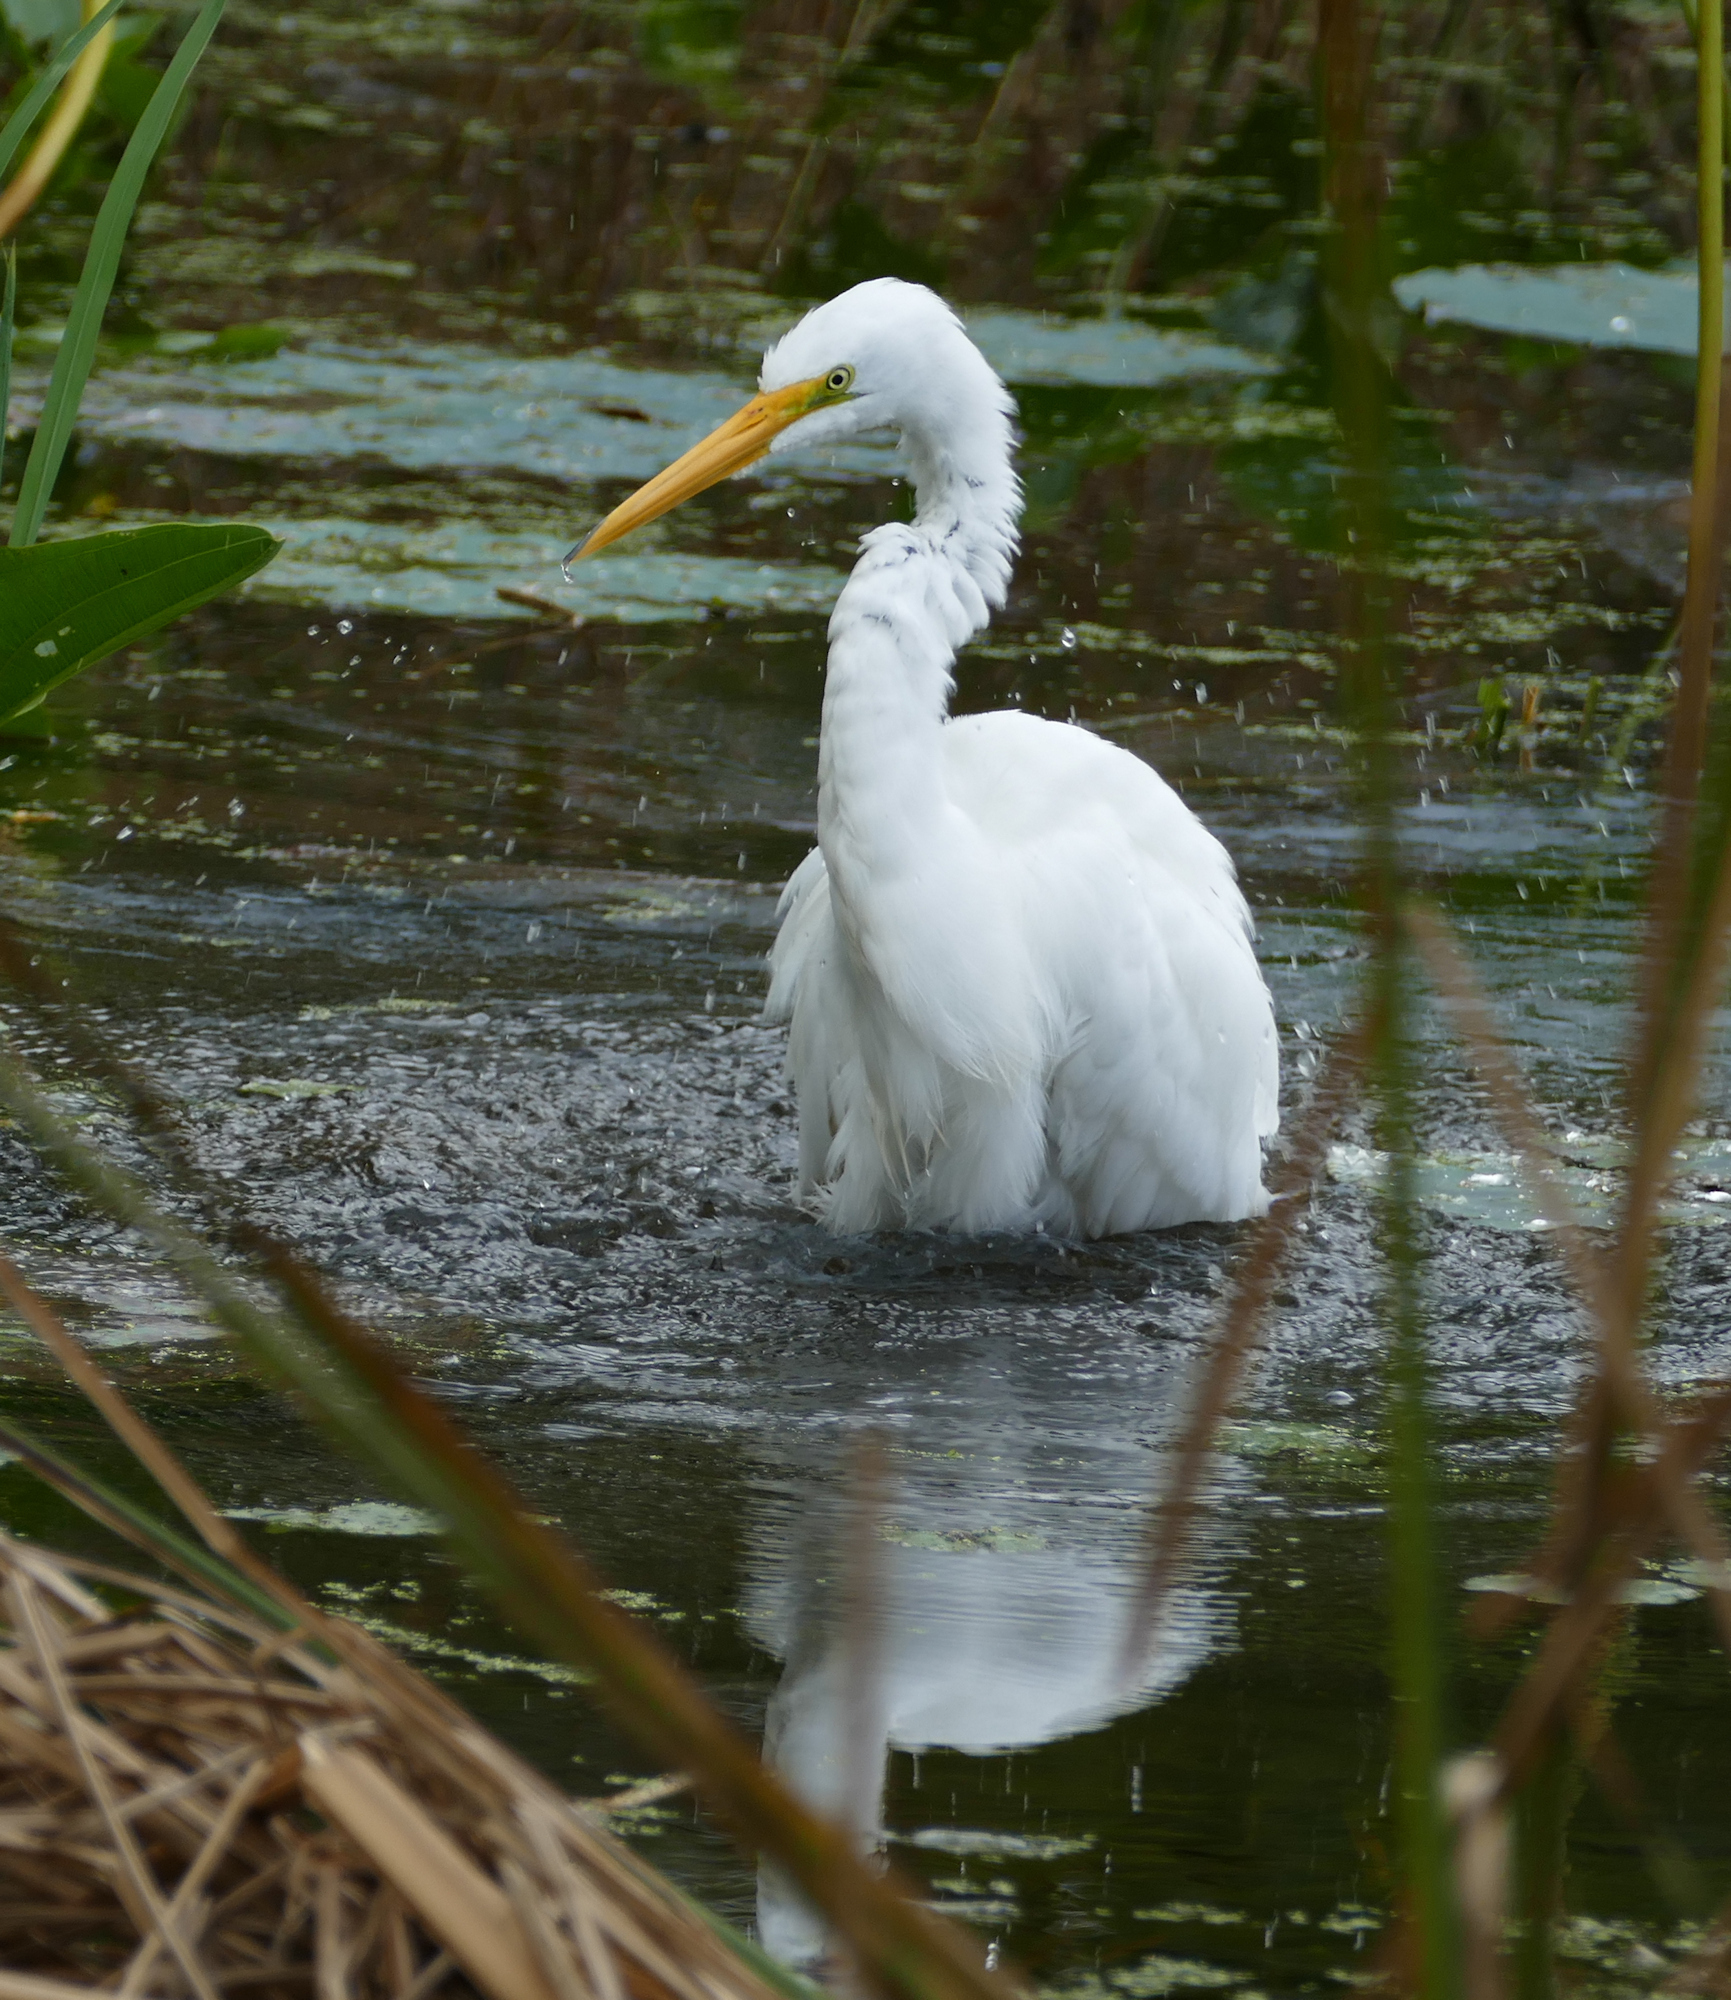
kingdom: Animalia
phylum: Chordata
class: Aves
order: Pelecaniformes
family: Ardeidae
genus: Ardea
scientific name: Ardea alba
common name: Great egret
